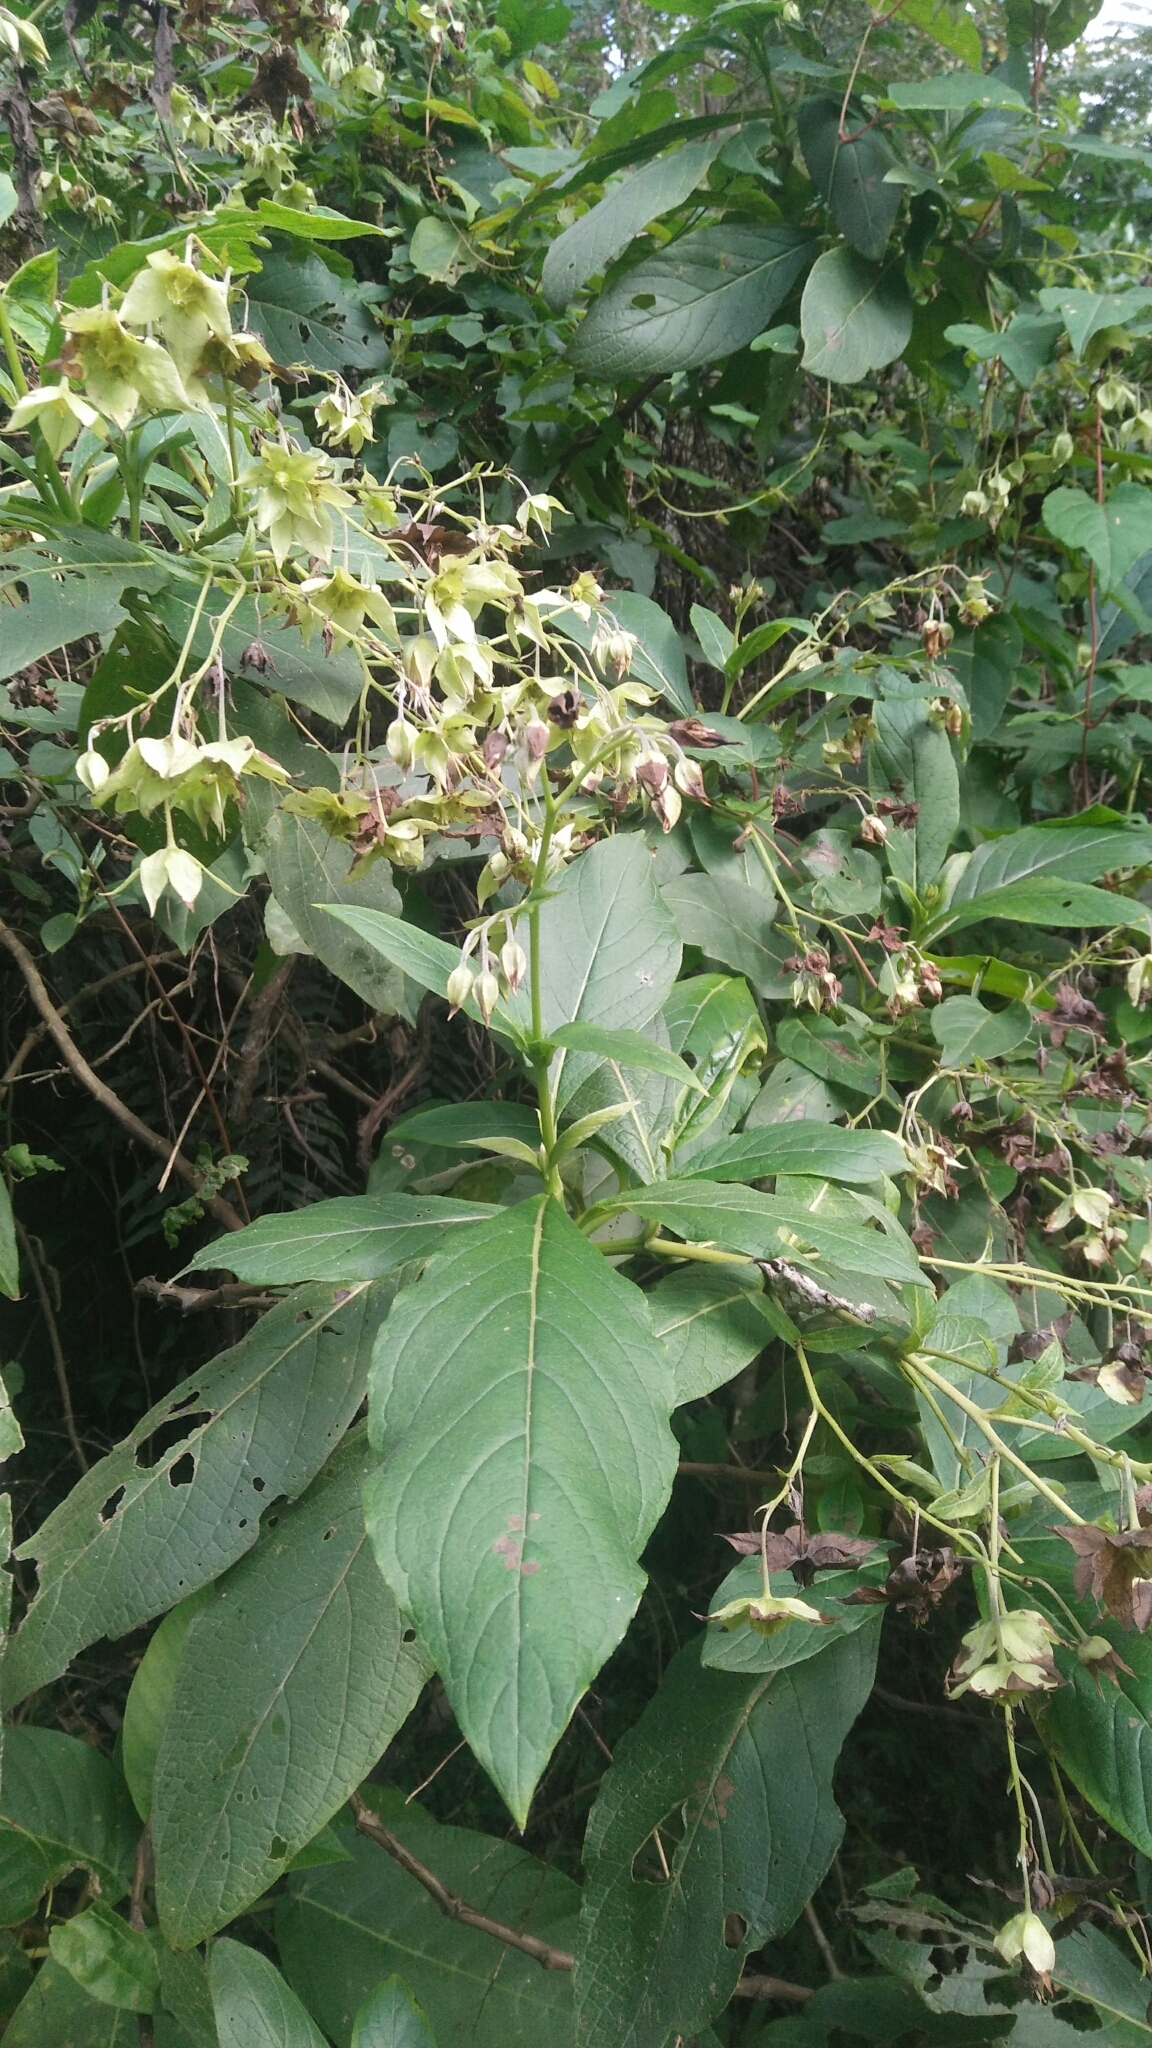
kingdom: Plantae
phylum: Tracheophyta
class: Magnoliopsida
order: Boraginales
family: Boraginaceae
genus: Trichodesma
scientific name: Trichodesma calycosum
